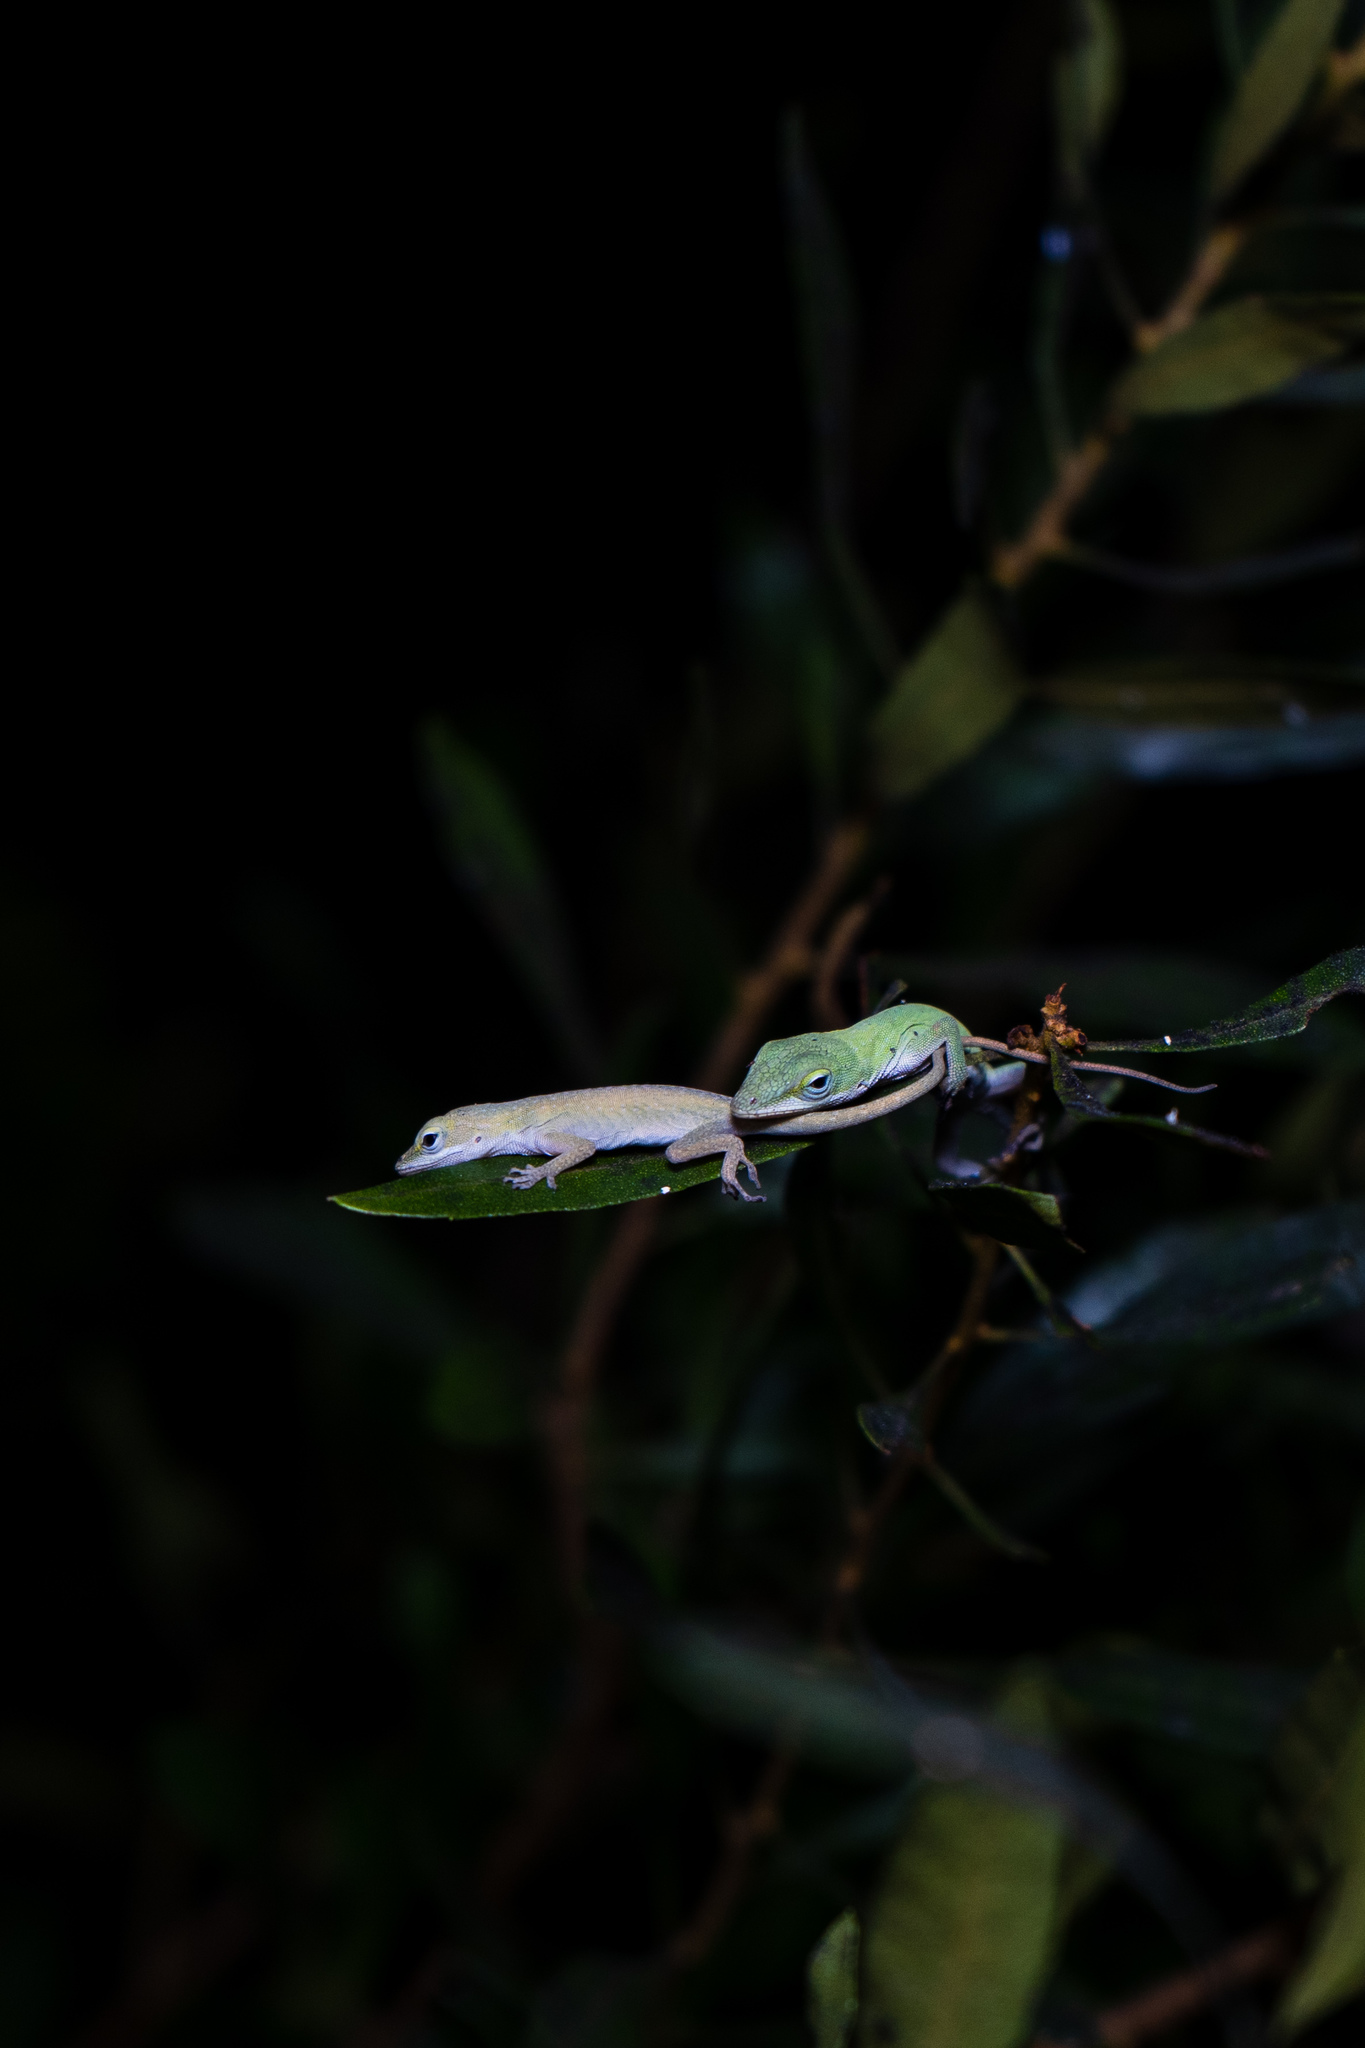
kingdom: Animalia
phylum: Chordata
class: Squamata
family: Dactyloidae
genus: Anolis
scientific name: Anolis carolinensis
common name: Green anole
